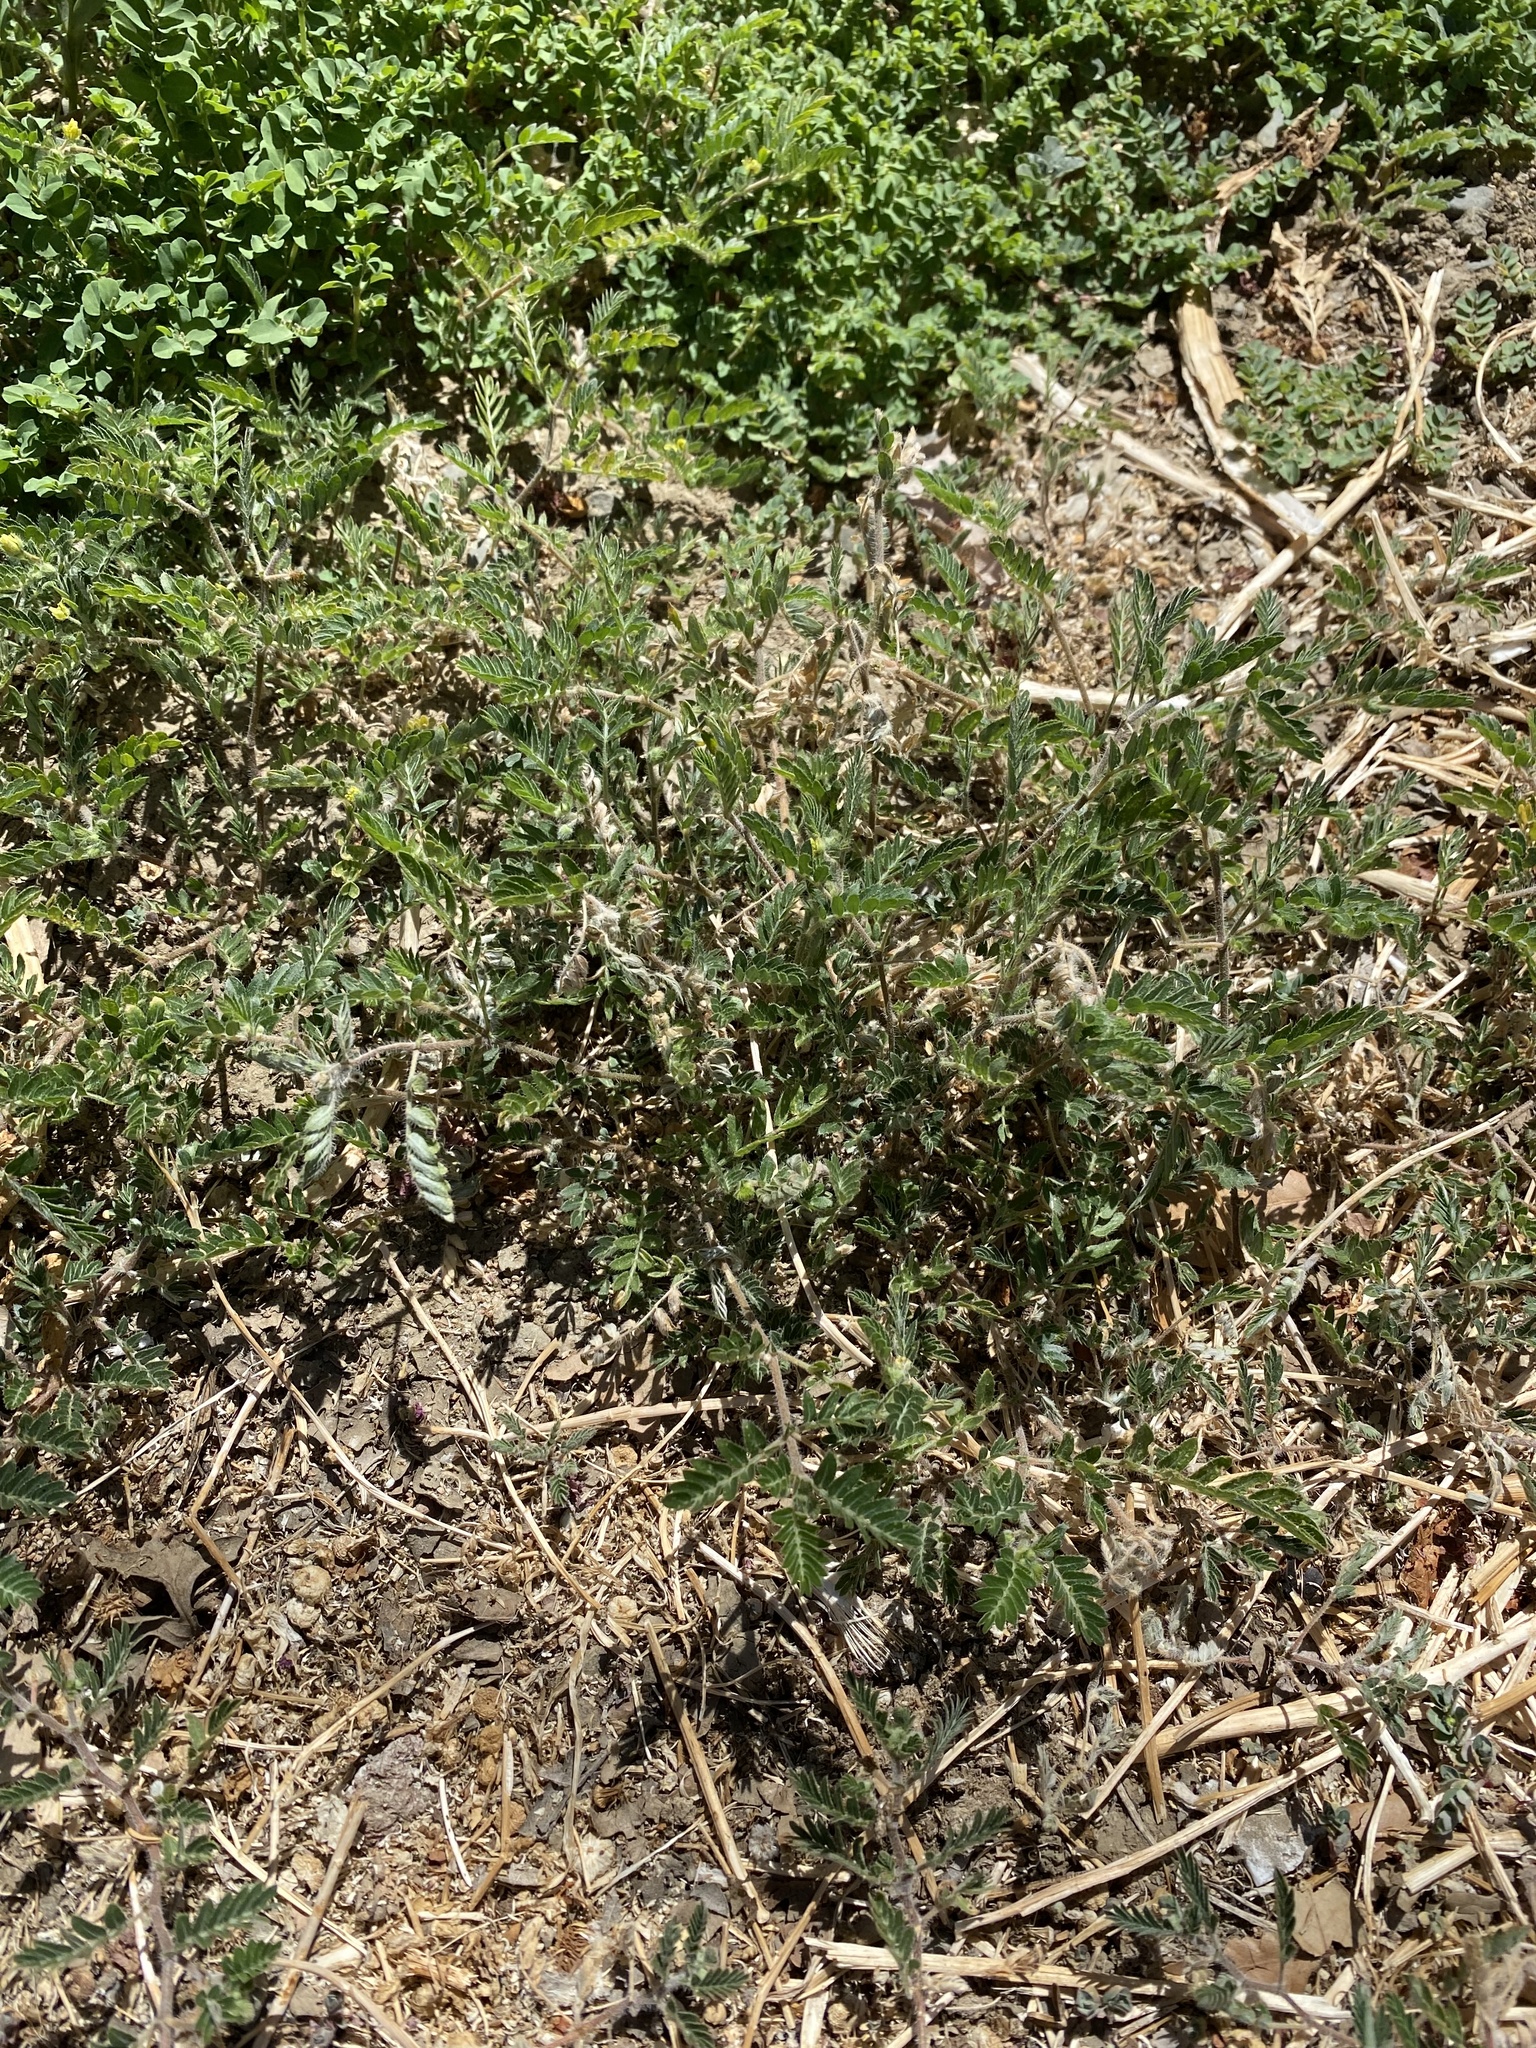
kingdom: Plantae
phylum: Tracheophyta
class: Magnoliopsida
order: Zygophyllales
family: Zygophyllaceae
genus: Tribulus
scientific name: Tribulus terrestris
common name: Puncturevine
